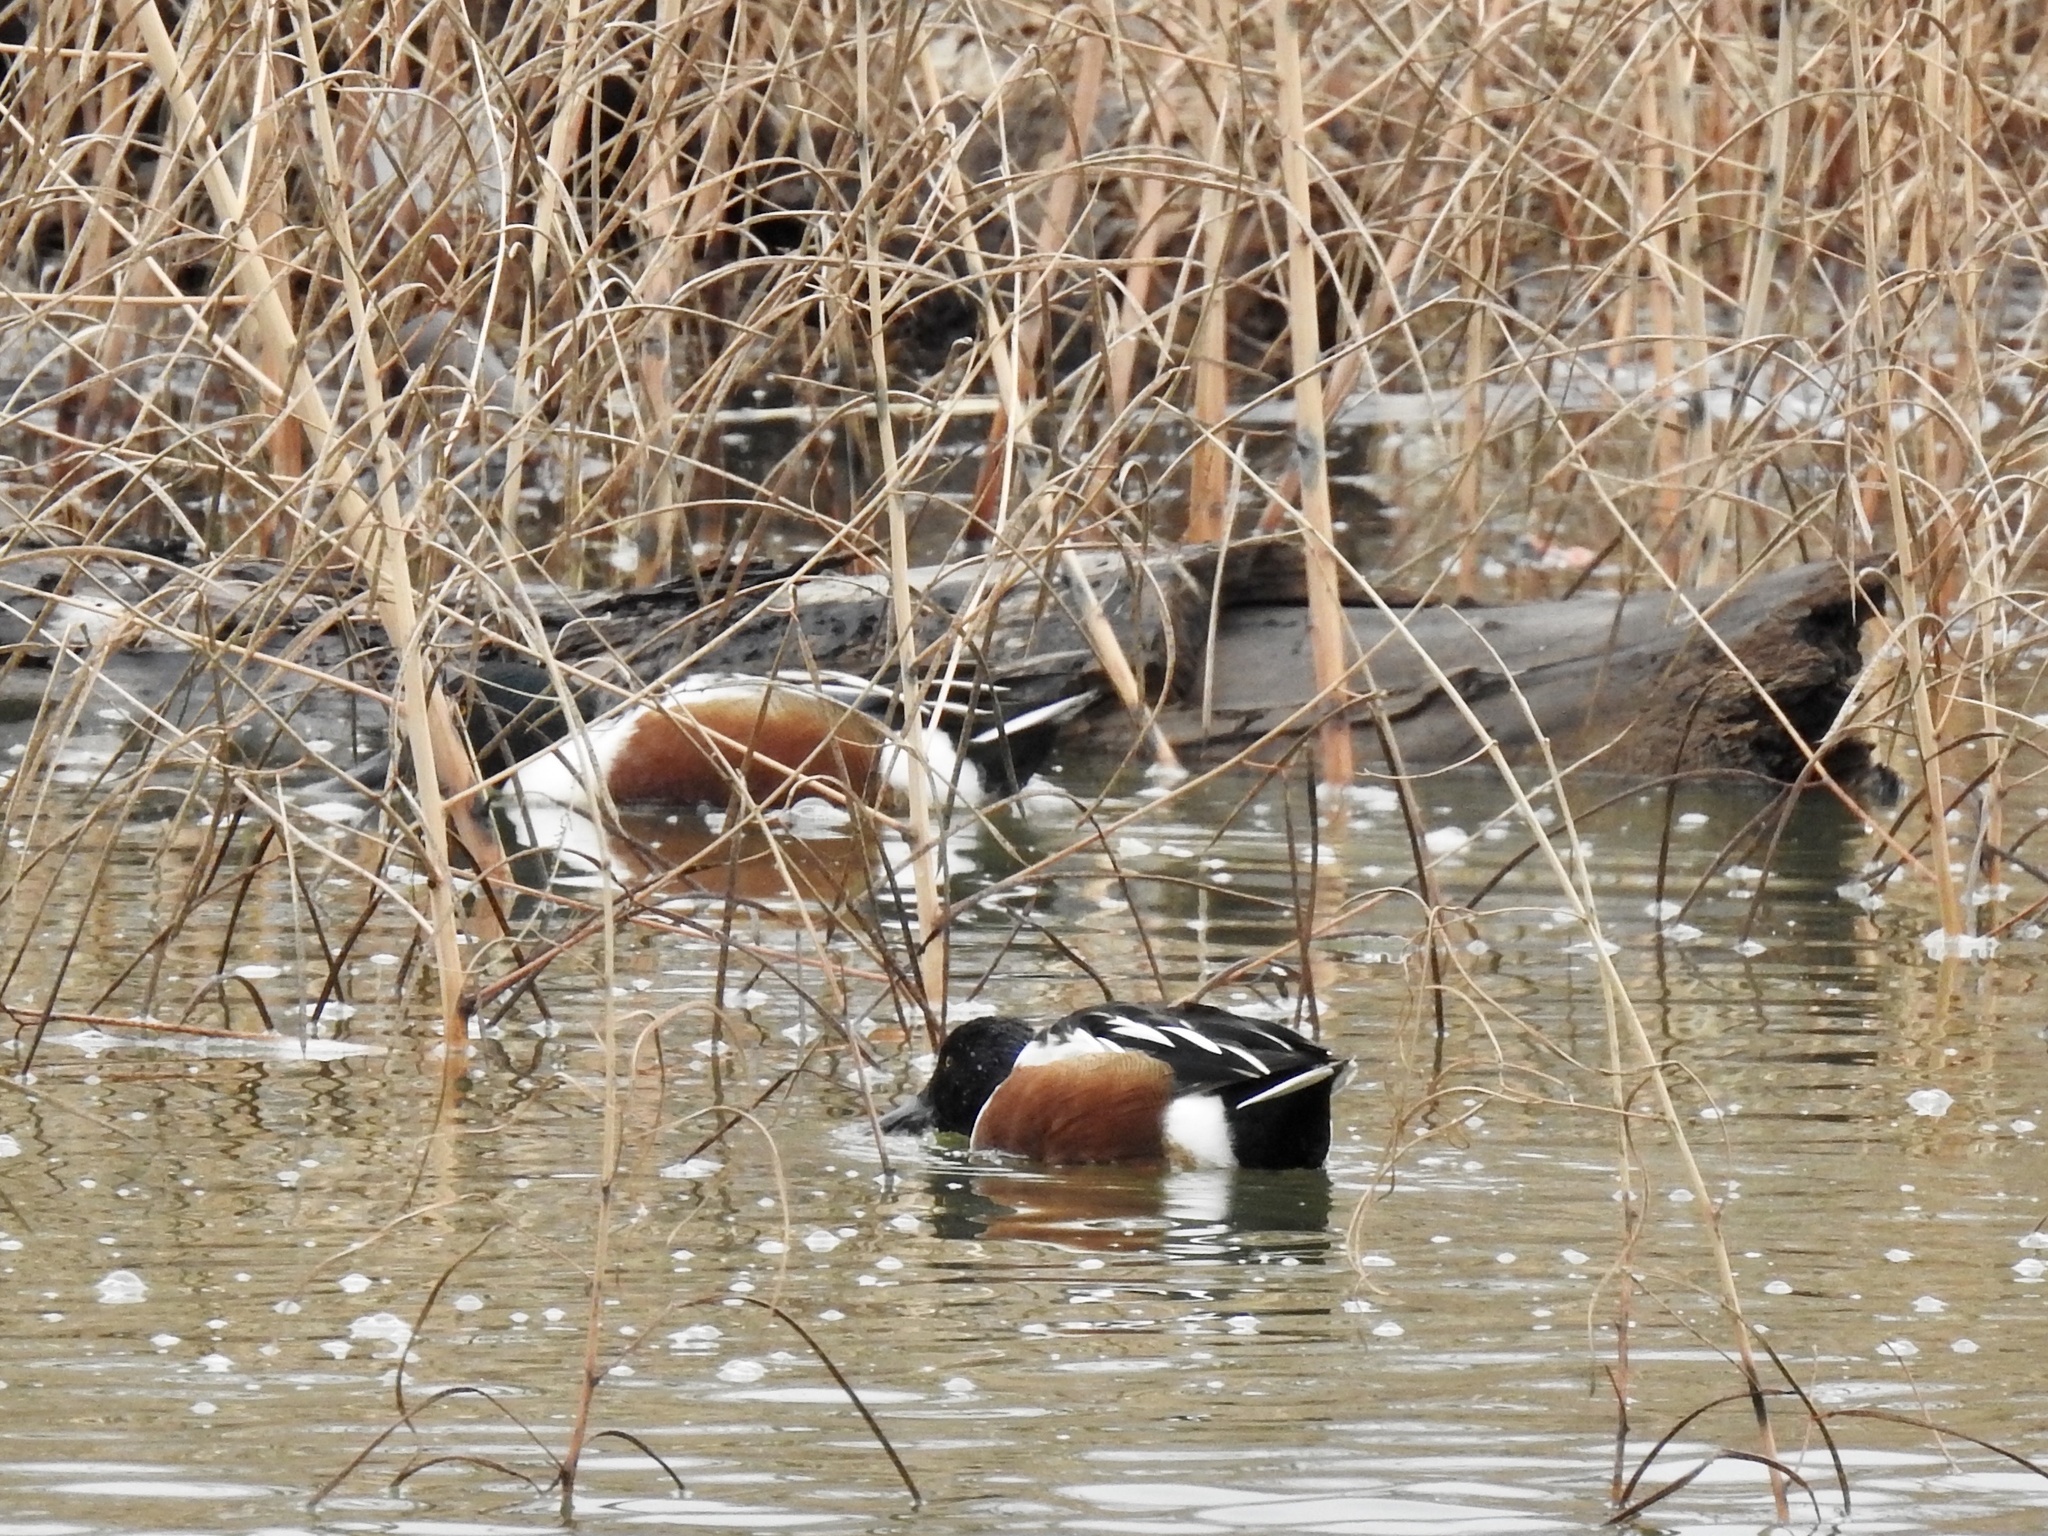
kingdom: Animalia
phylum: Chordata
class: Aves
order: Anseriformes
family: Anatidae
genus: Spatula
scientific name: Spatula clypeata
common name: Northern shoveler
